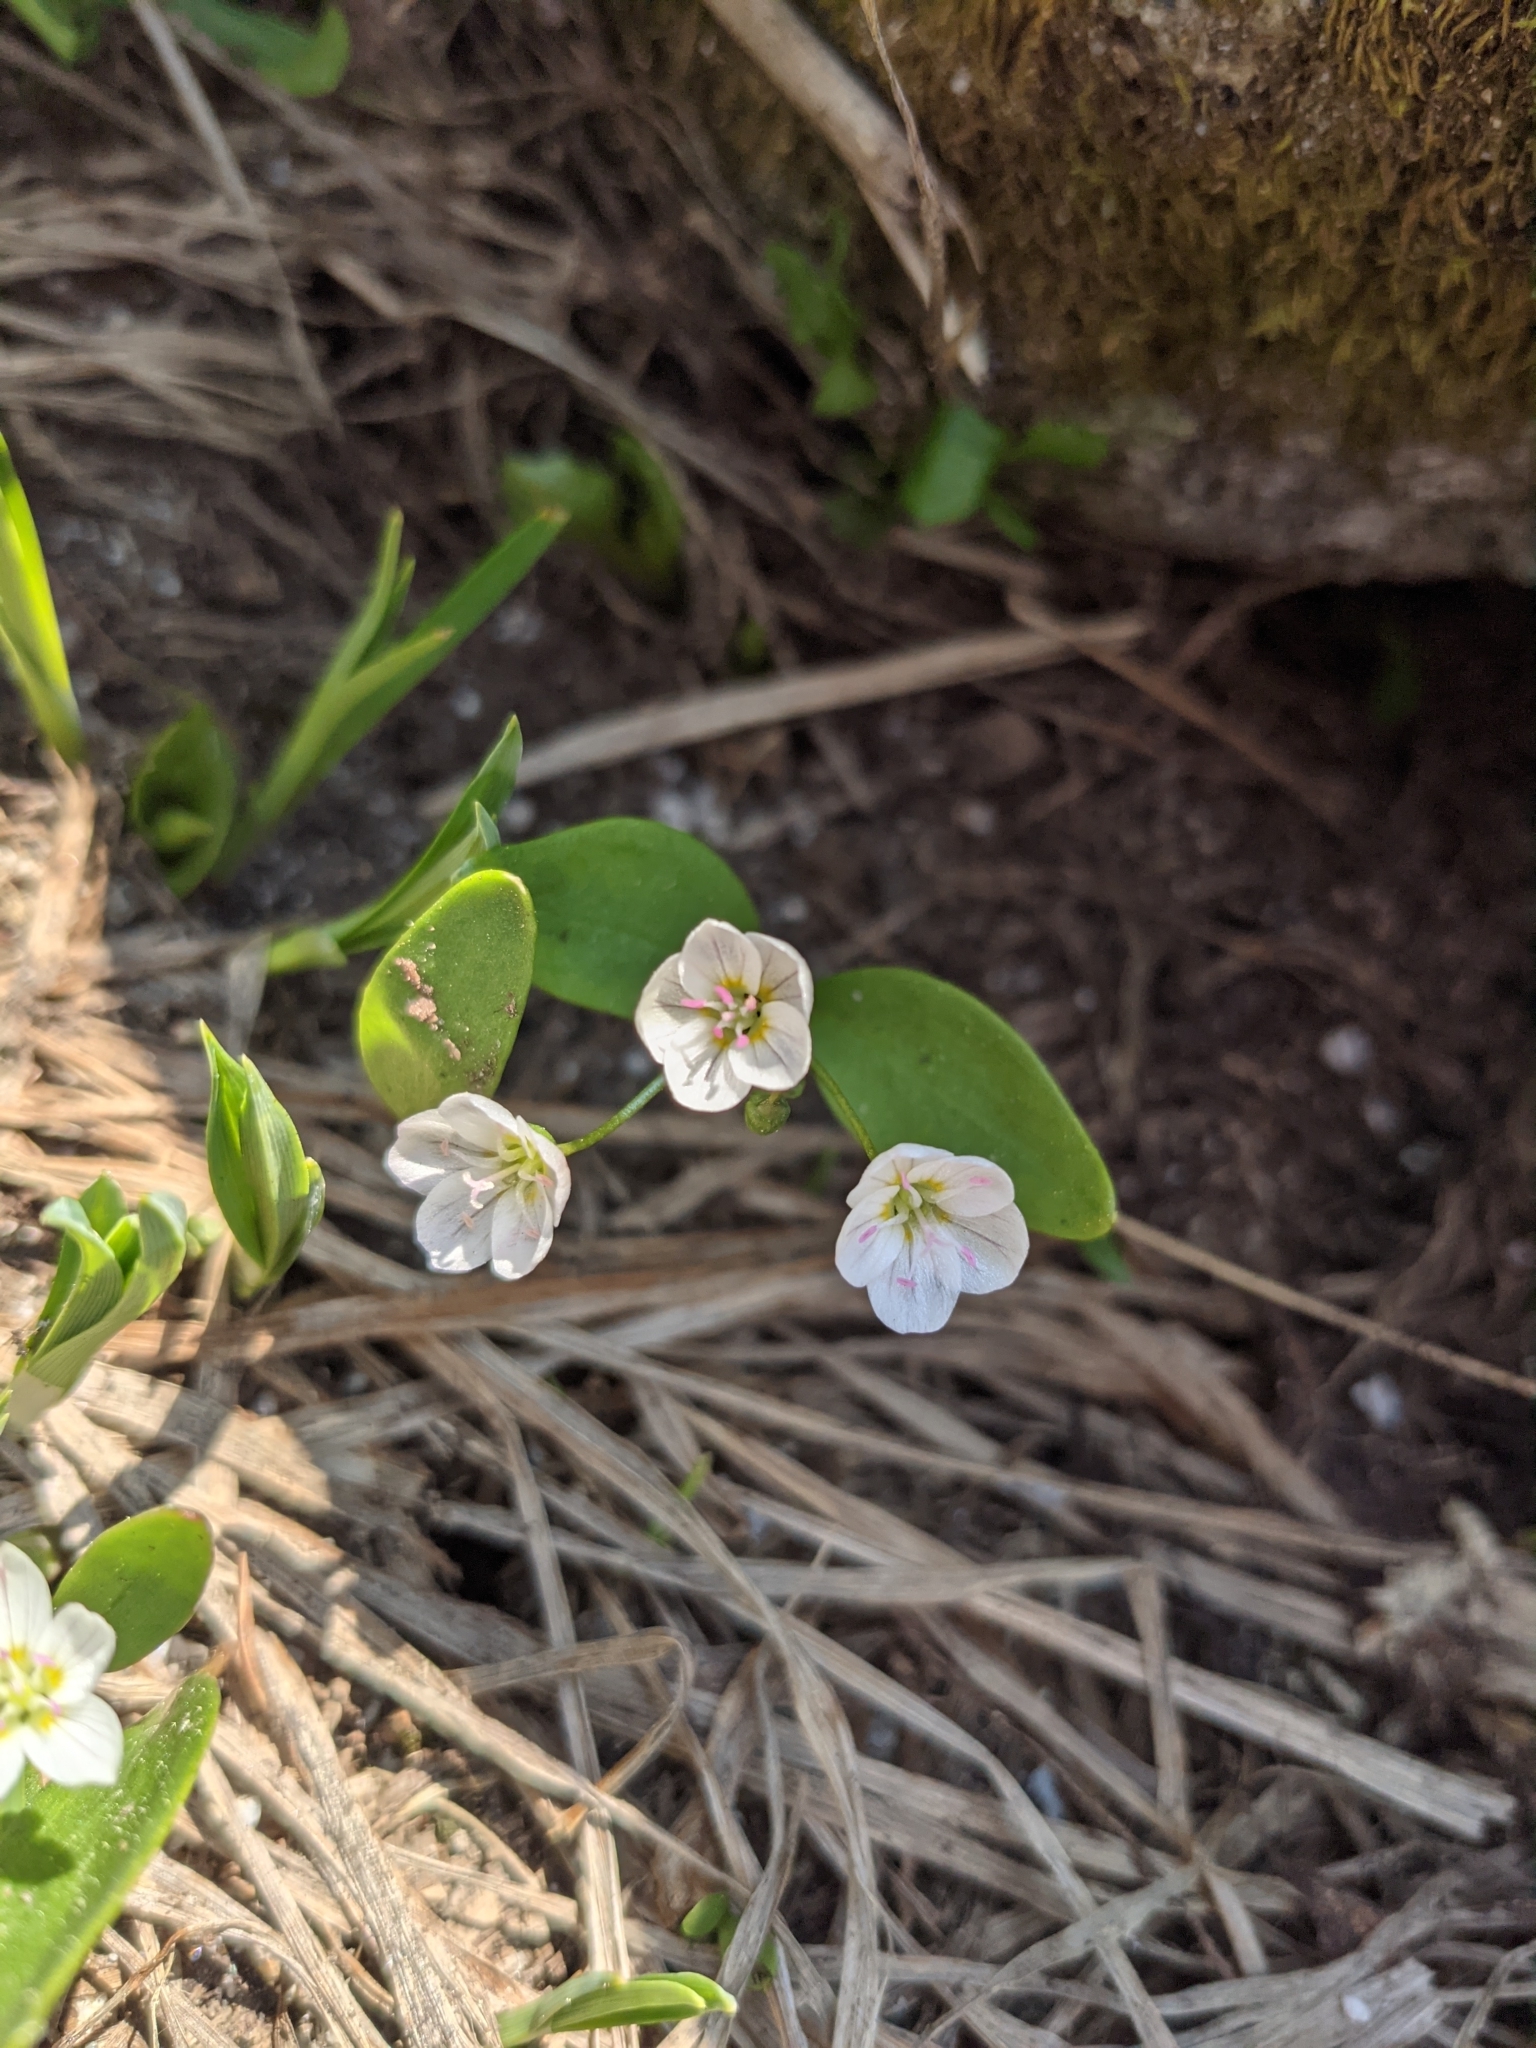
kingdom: Plantae
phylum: Tracheophyta
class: Magnoliopsida
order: Caryophyllales
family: Montiaceae
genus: Claytonia
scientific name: Claytonia lanceolata
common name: Western spring-beauty
